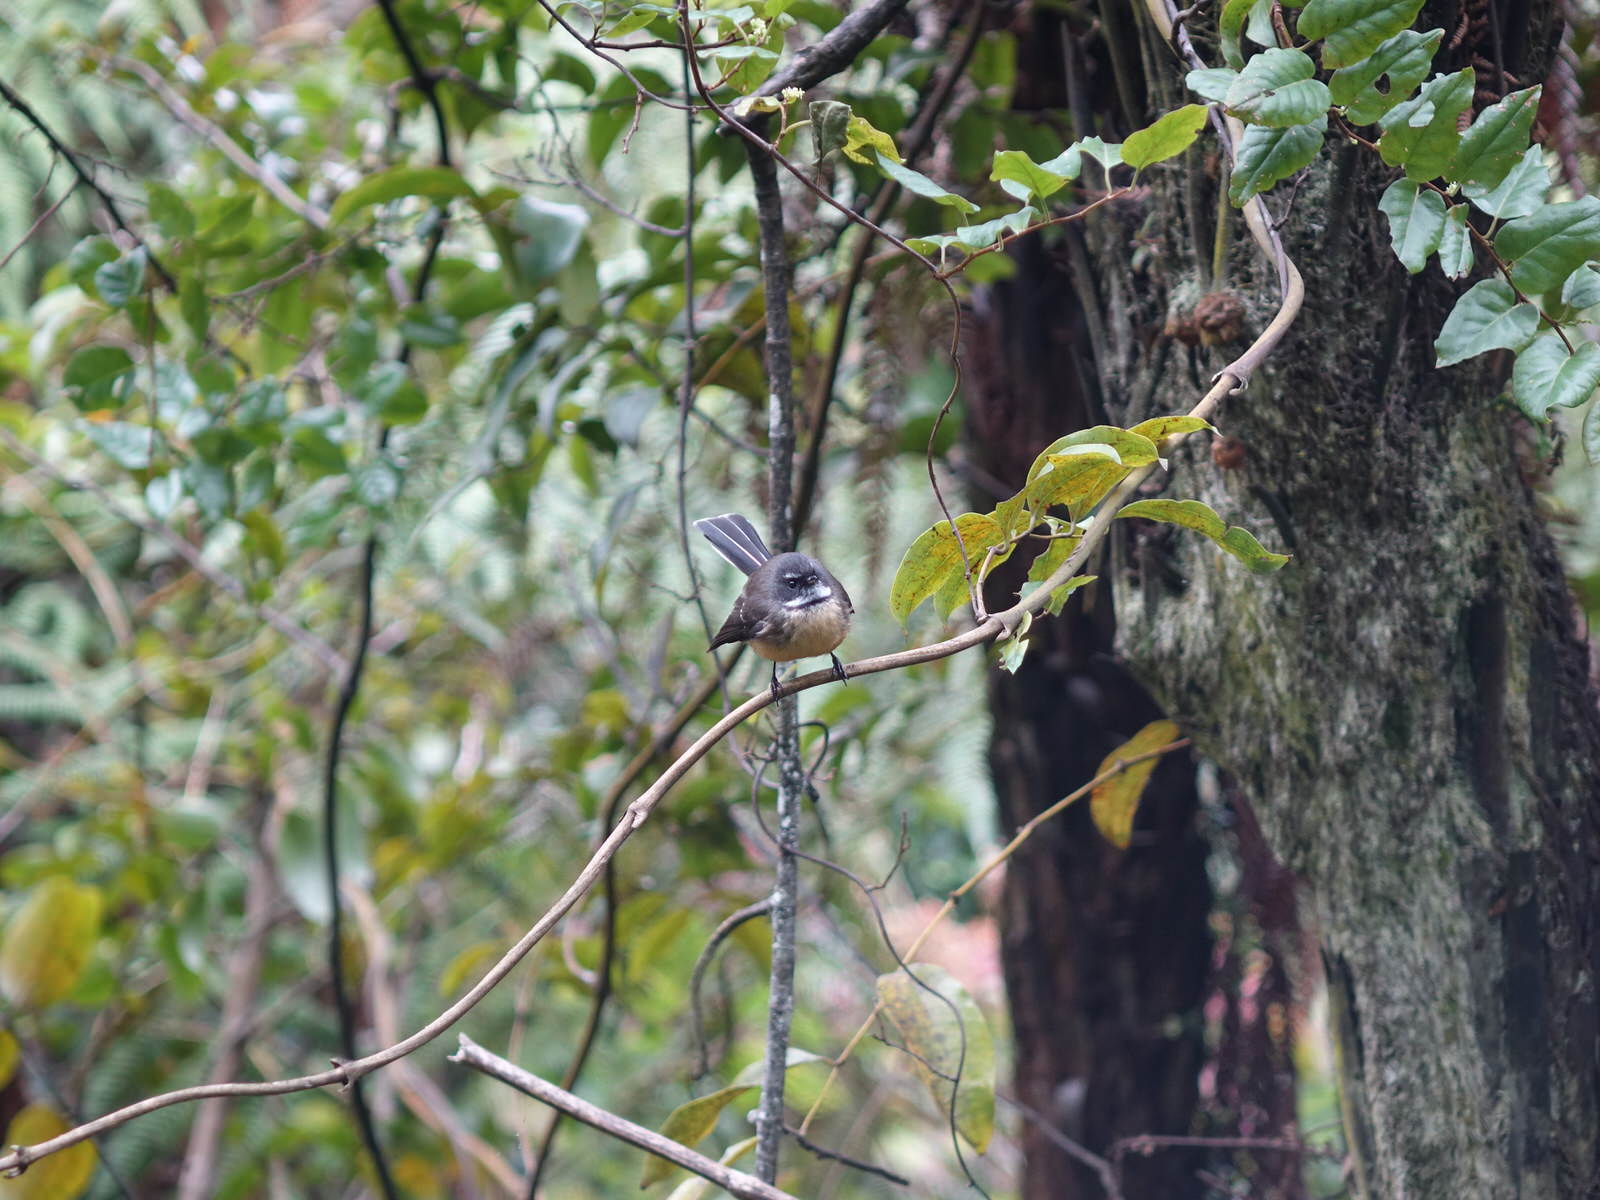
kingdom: Animalia
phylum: Chordata
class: Aves
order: Passeriformes
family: Rhipiduridae
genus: Rhipidura
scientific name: Rhipidura fuliginosa
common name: New zealand fantail
